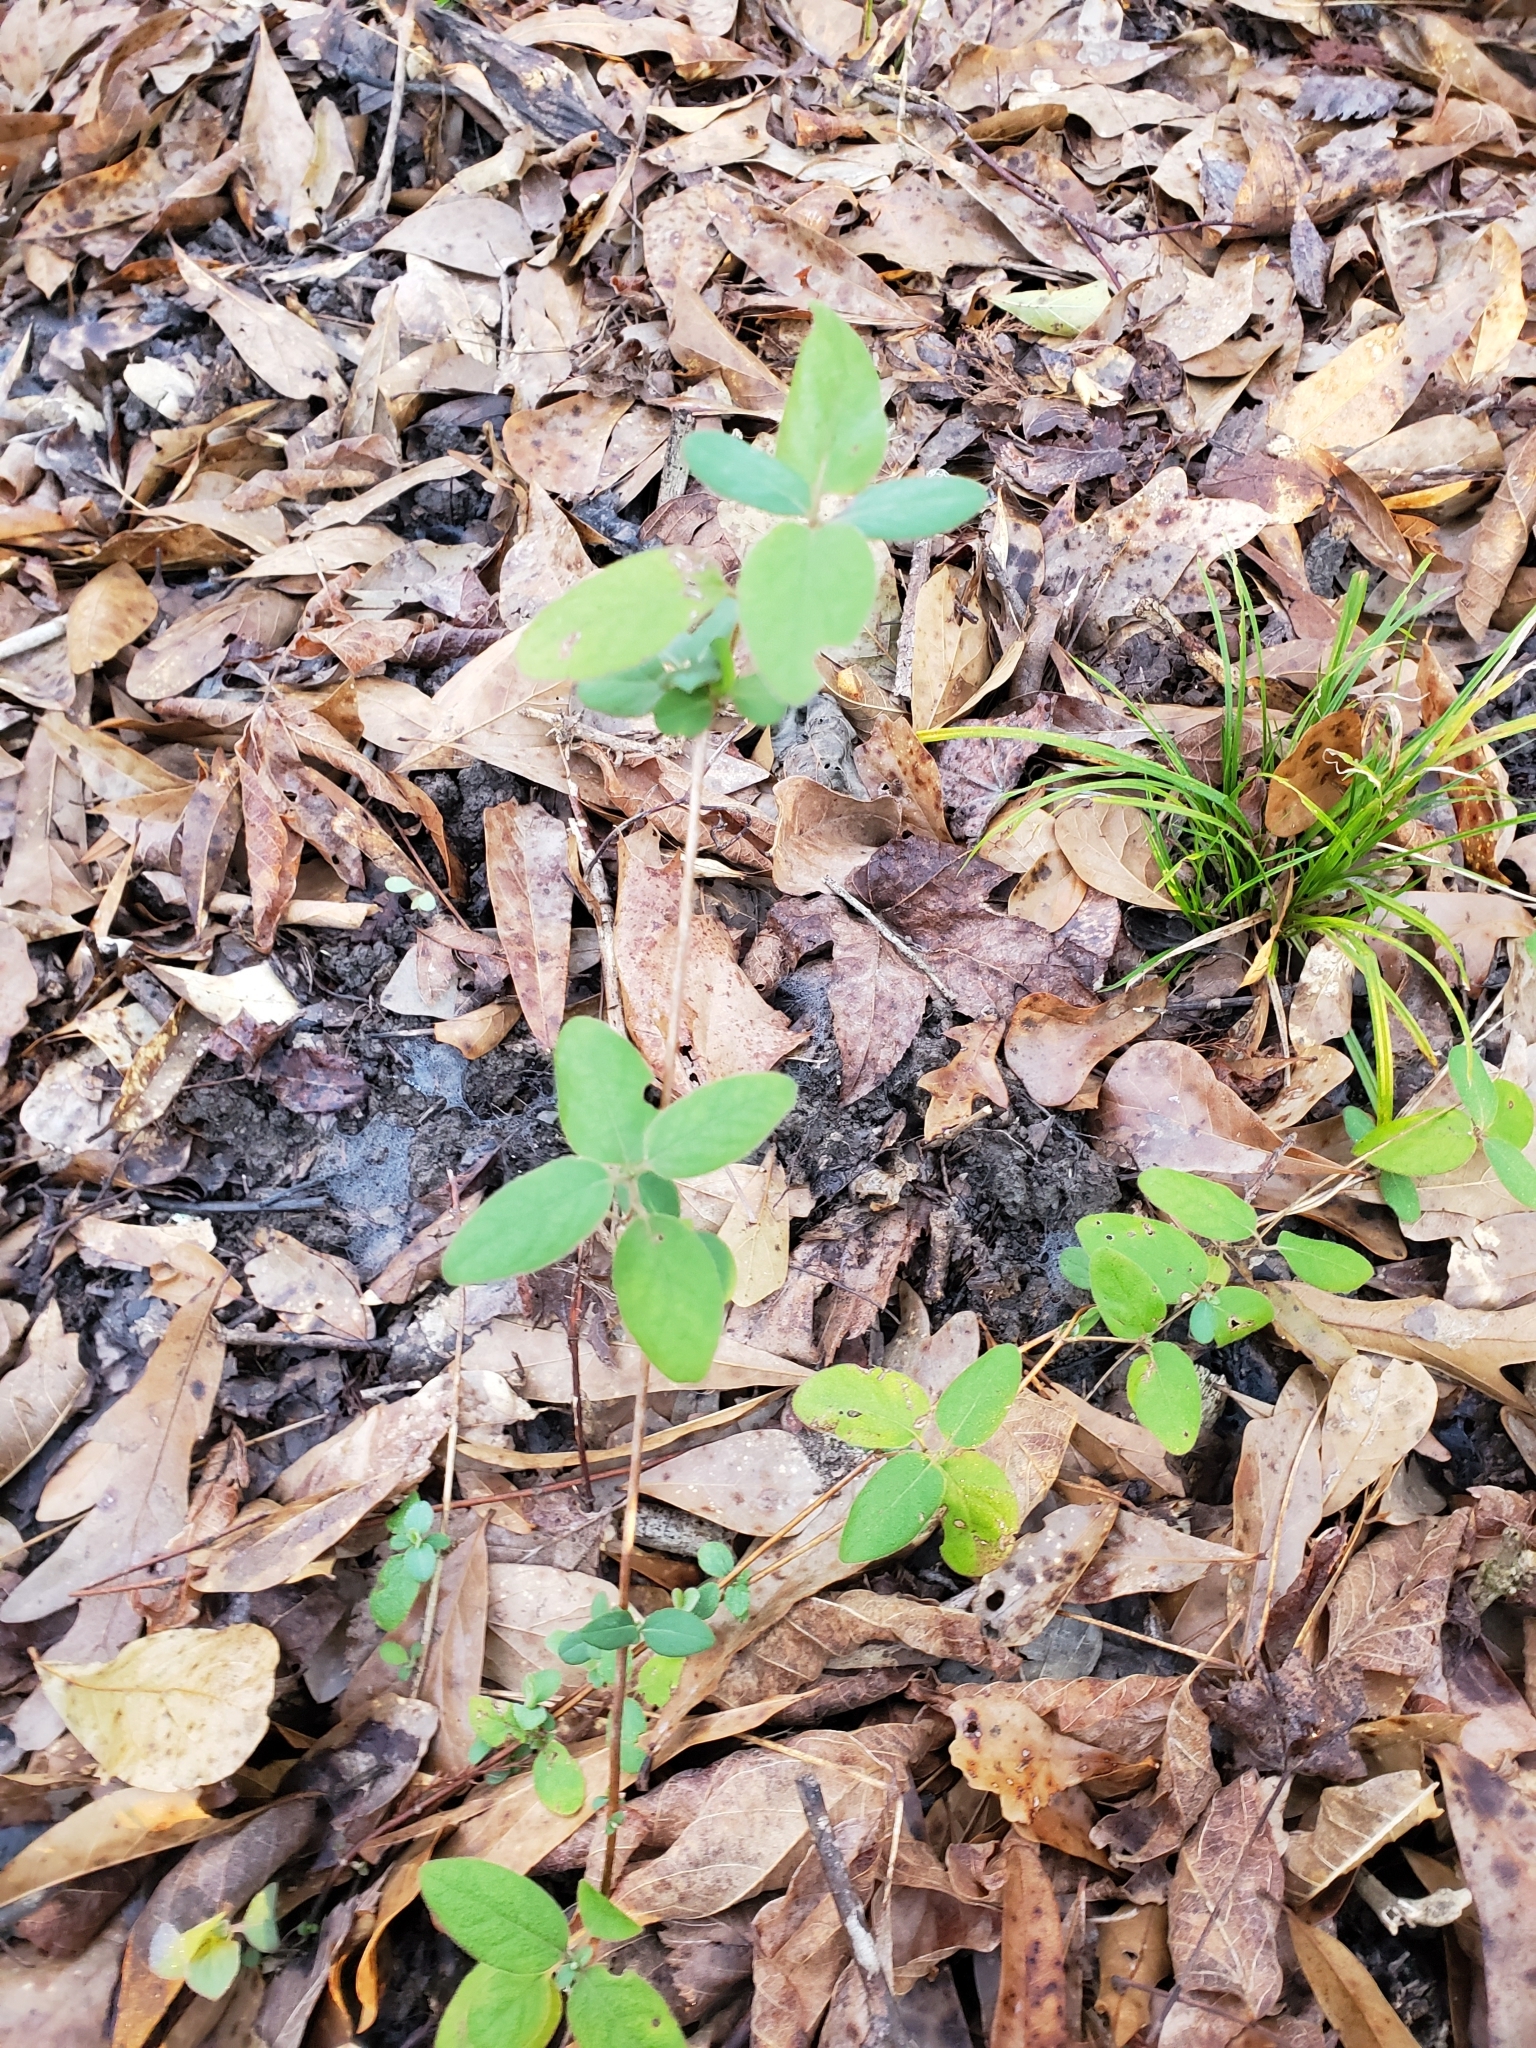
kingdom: Plantae
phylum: Tracheophyta
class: Magnoliopsida
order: Dipsacales
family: Caprifoliaceae
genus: Lonicera
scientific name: Lonicera japonica
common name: Japanese honeysuckle
